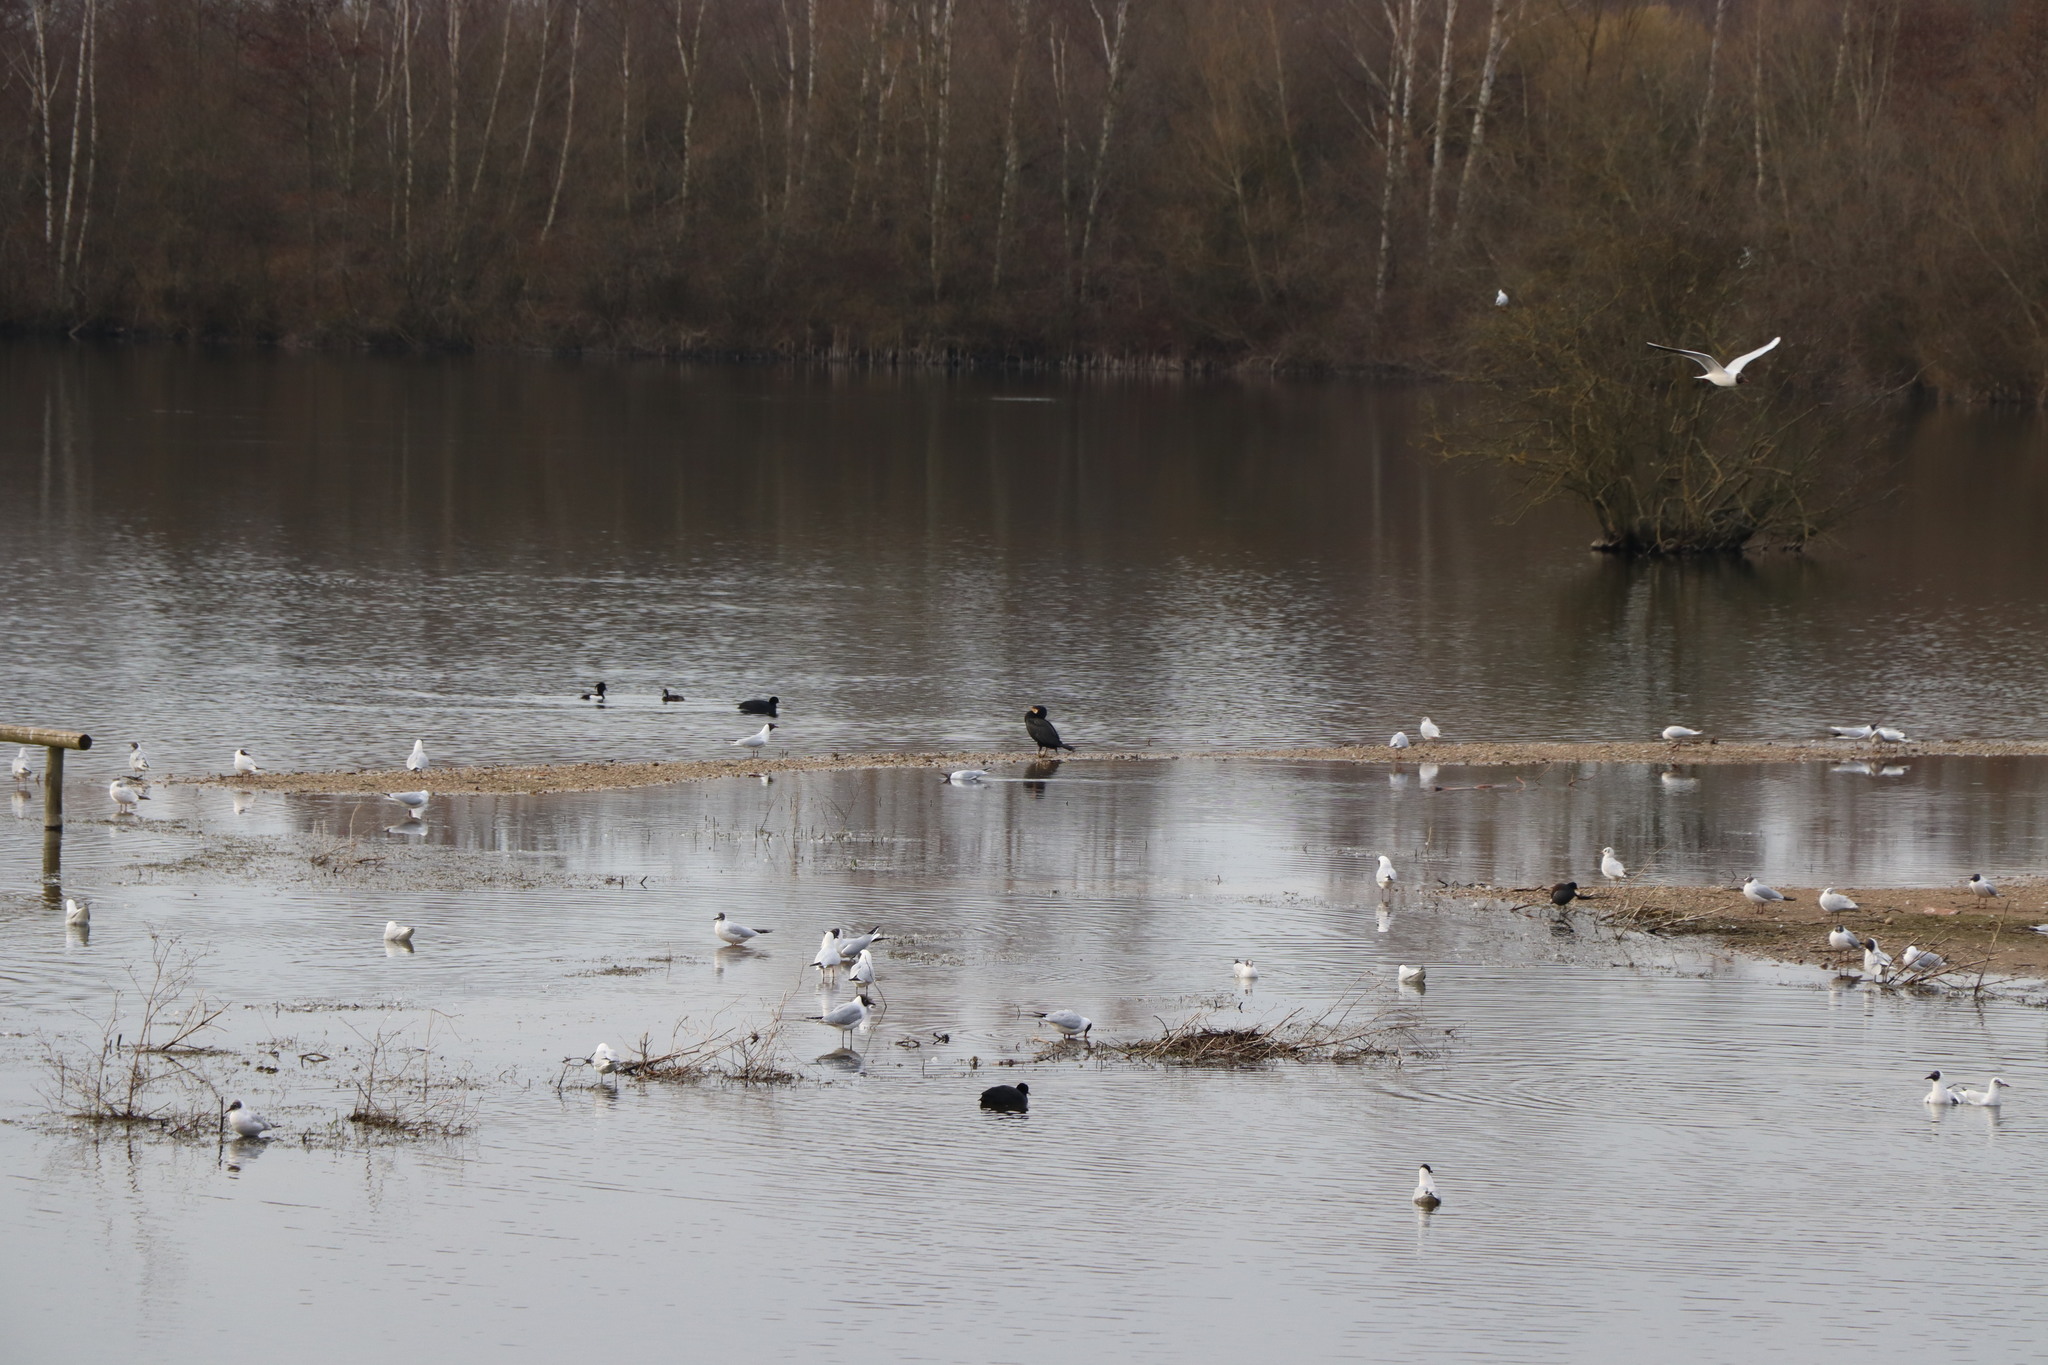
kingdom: Animalia
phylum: Chordata
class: Aves
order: Suliformes
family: Phalacrocoracidae
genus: Phalacrocorax
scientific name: Phalacrocorax carbo
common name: Great cormorant
